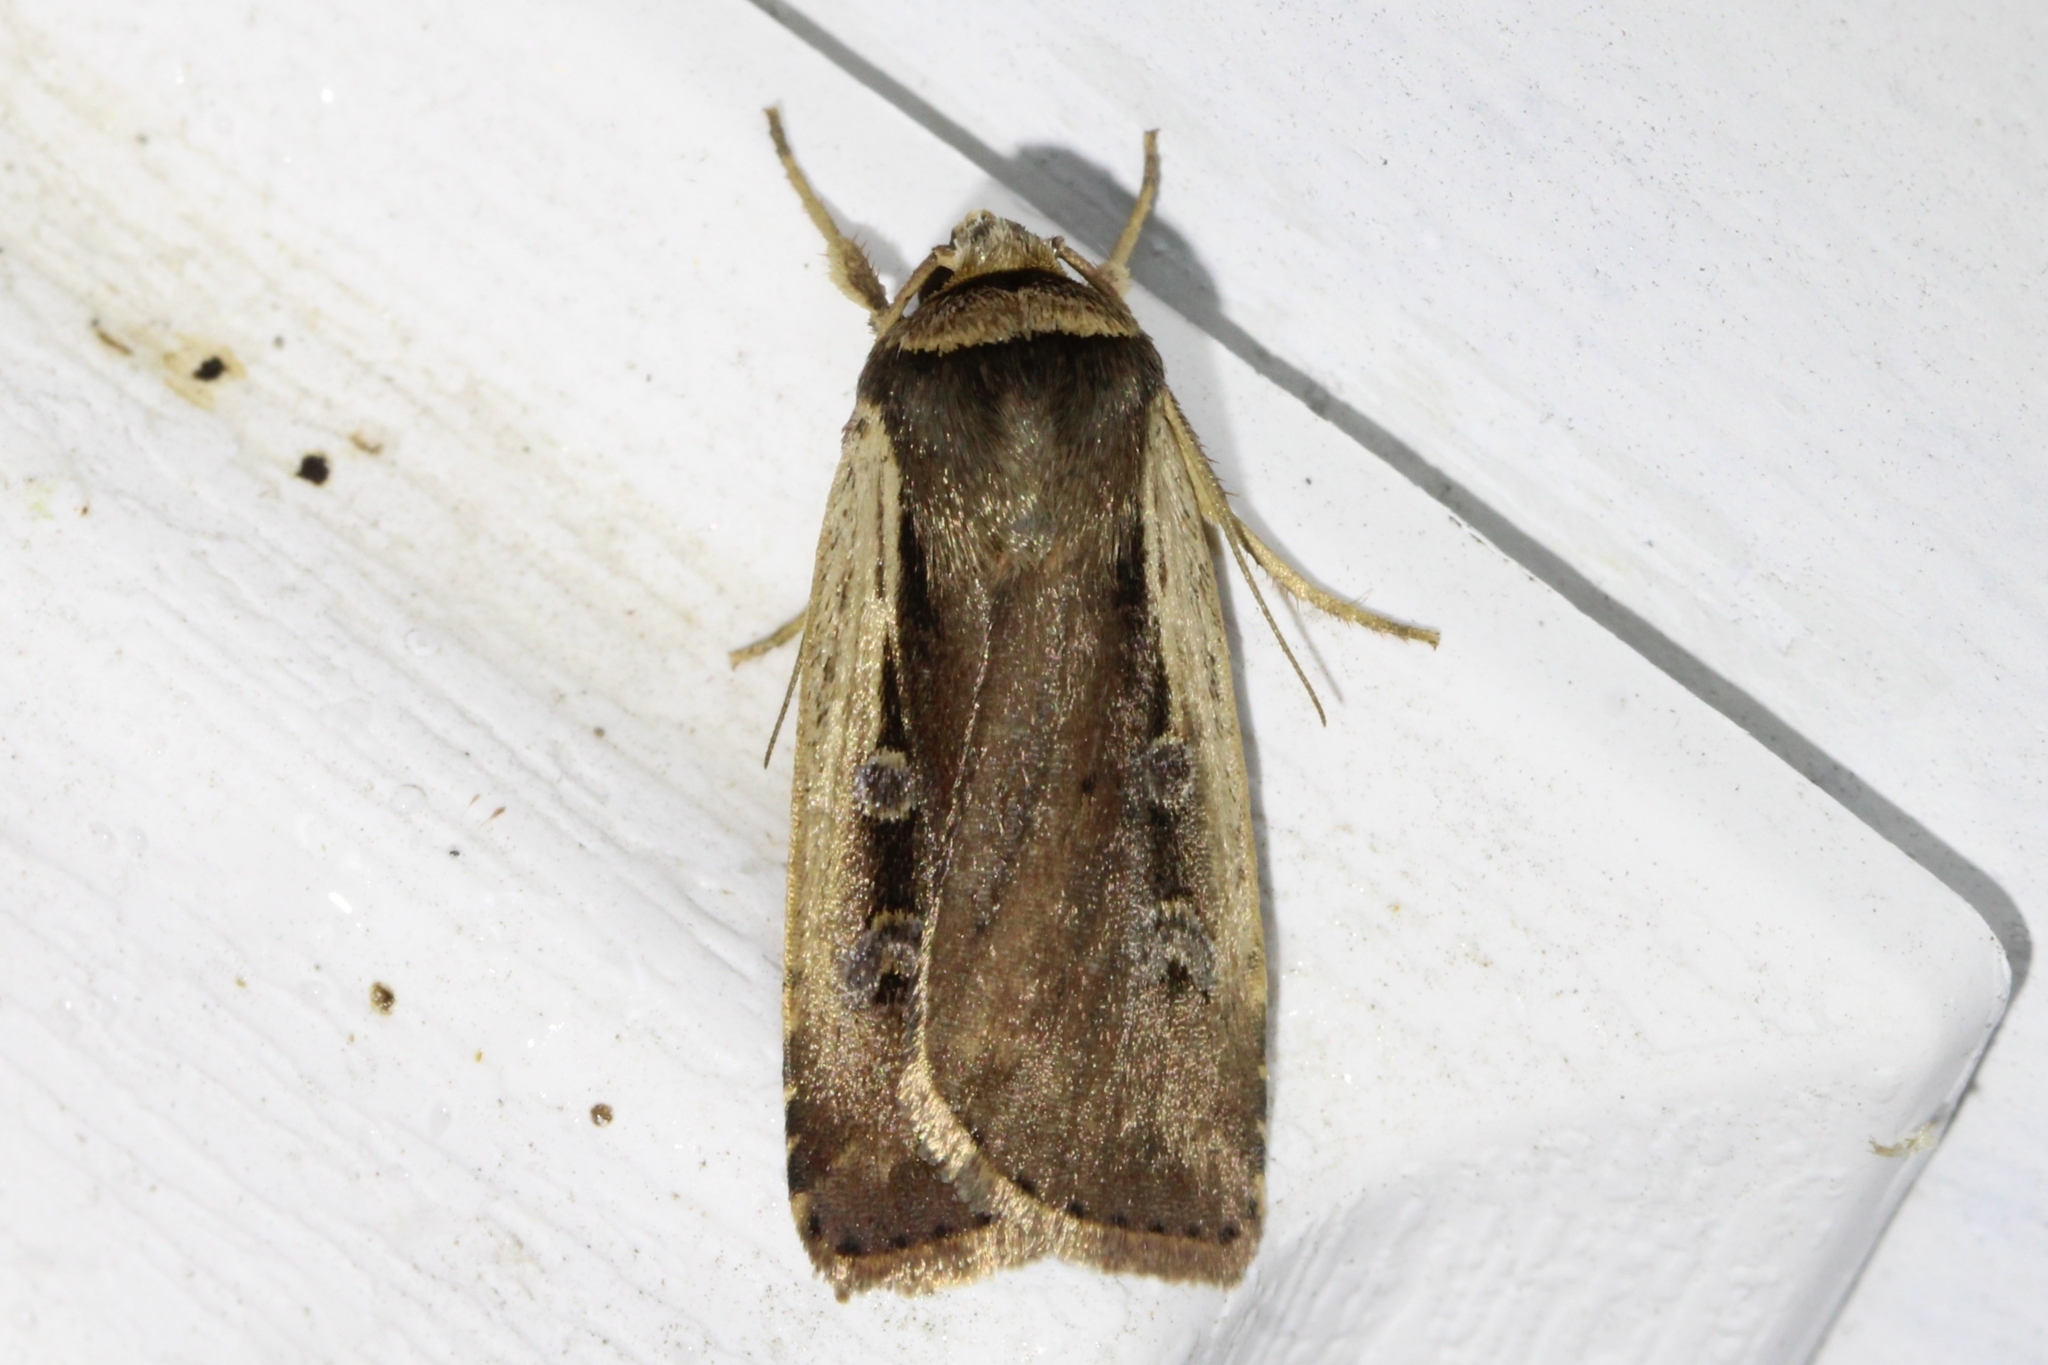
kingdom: Animalia
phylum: Arthropoda
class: Insecta
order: Lepidoptera
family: Noctuidae
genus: Ochropleura
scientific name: Ochropleura implecta
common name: Flame-shouldered dart
